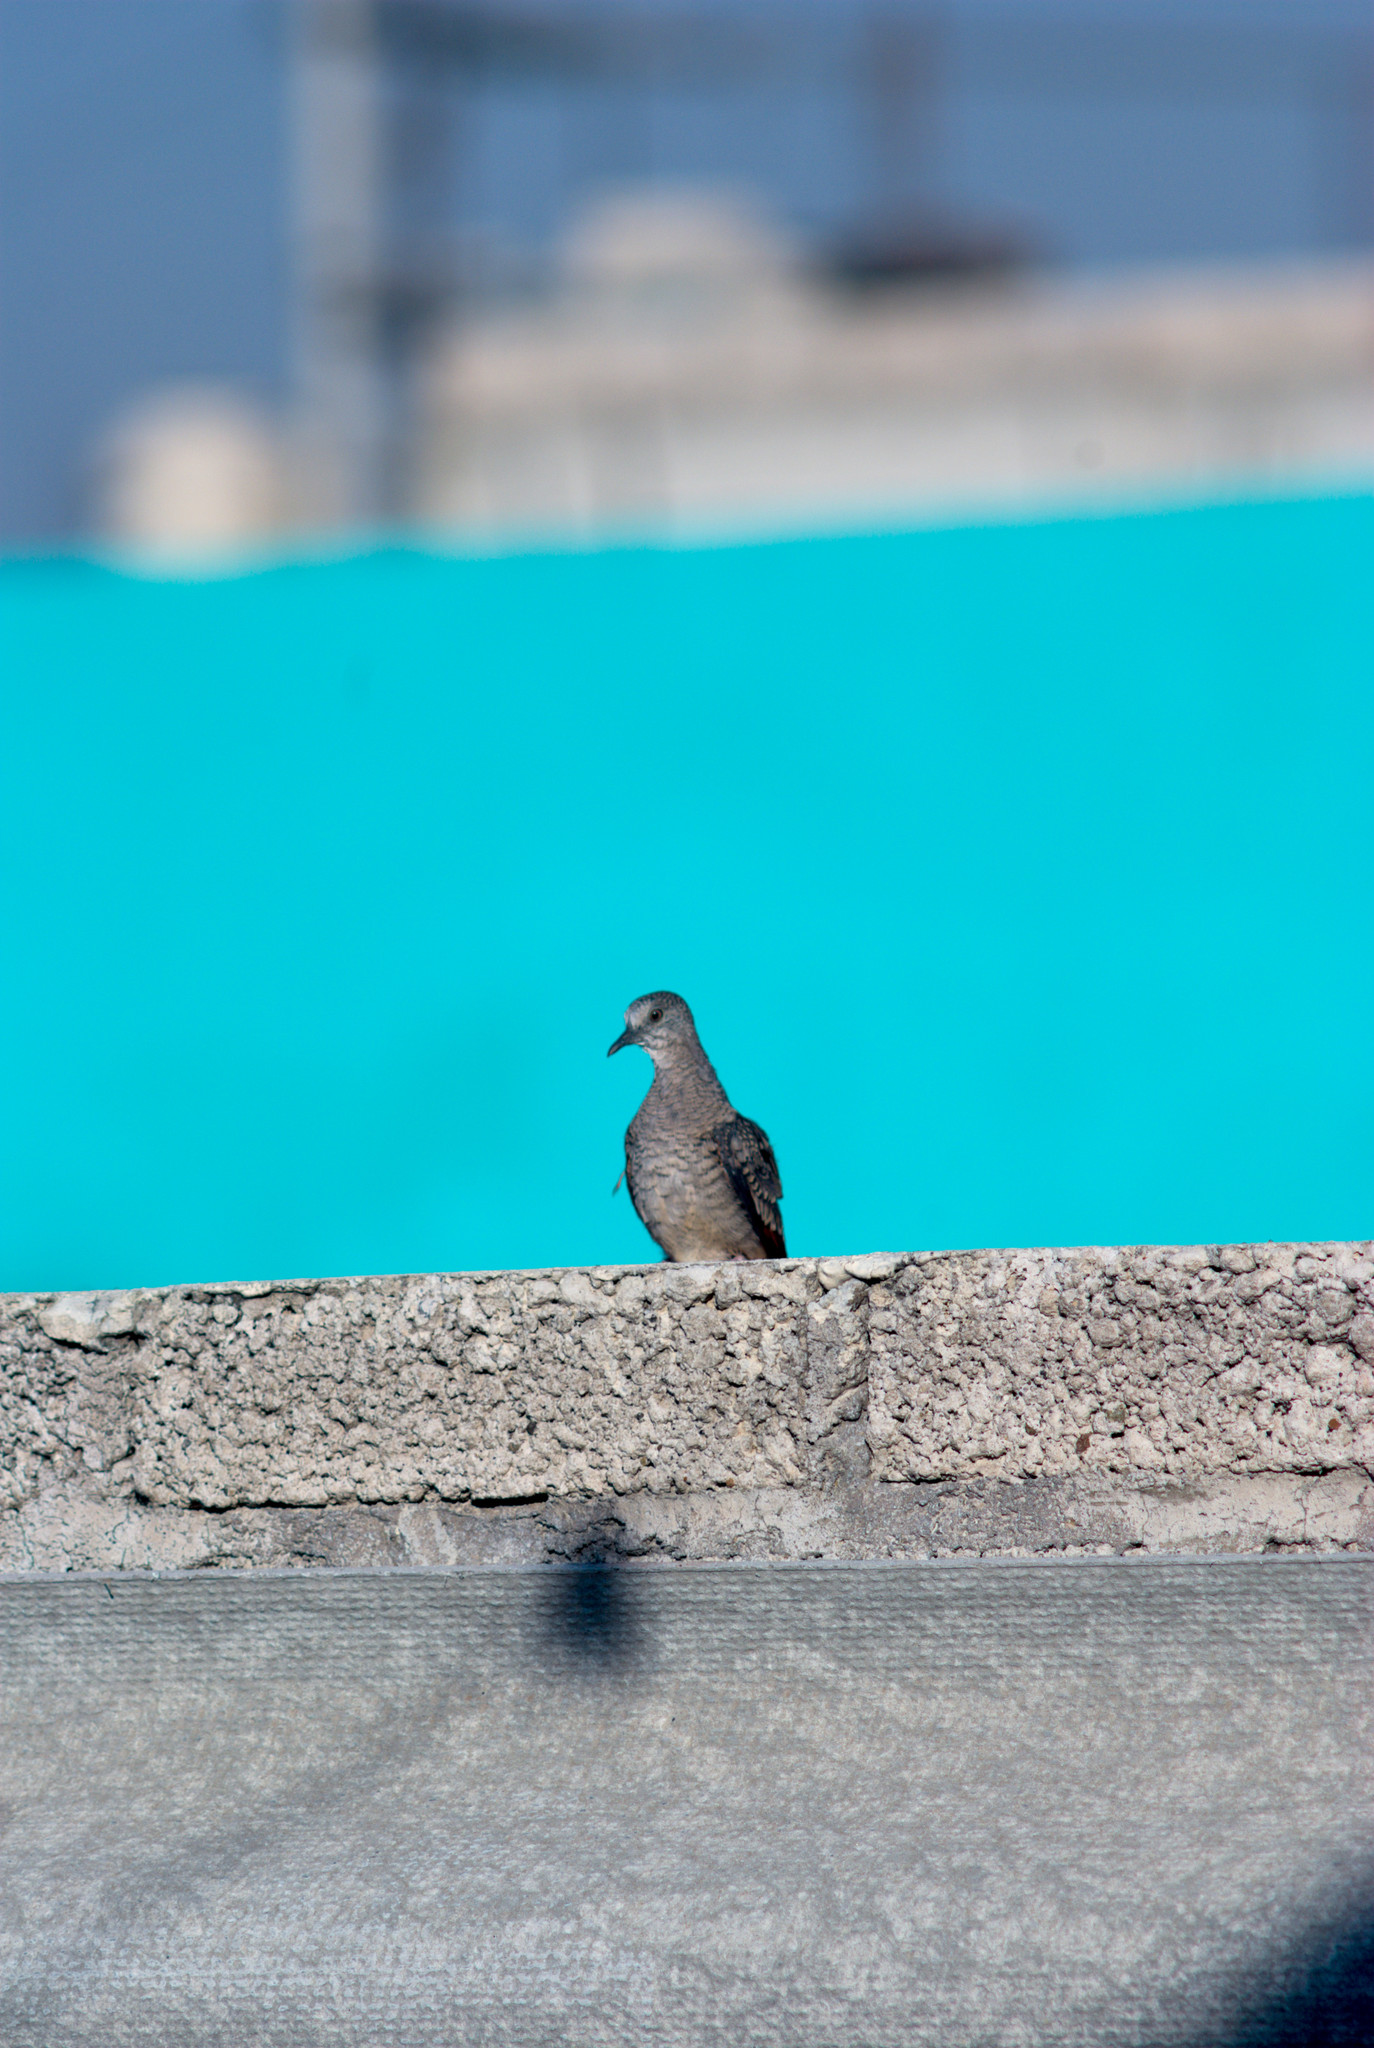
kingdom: Animalia
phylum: Chordata
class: Aves
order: Columbiformes
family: Columbidae
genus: Columbina
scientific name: Columbina inca
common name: Inca dove
